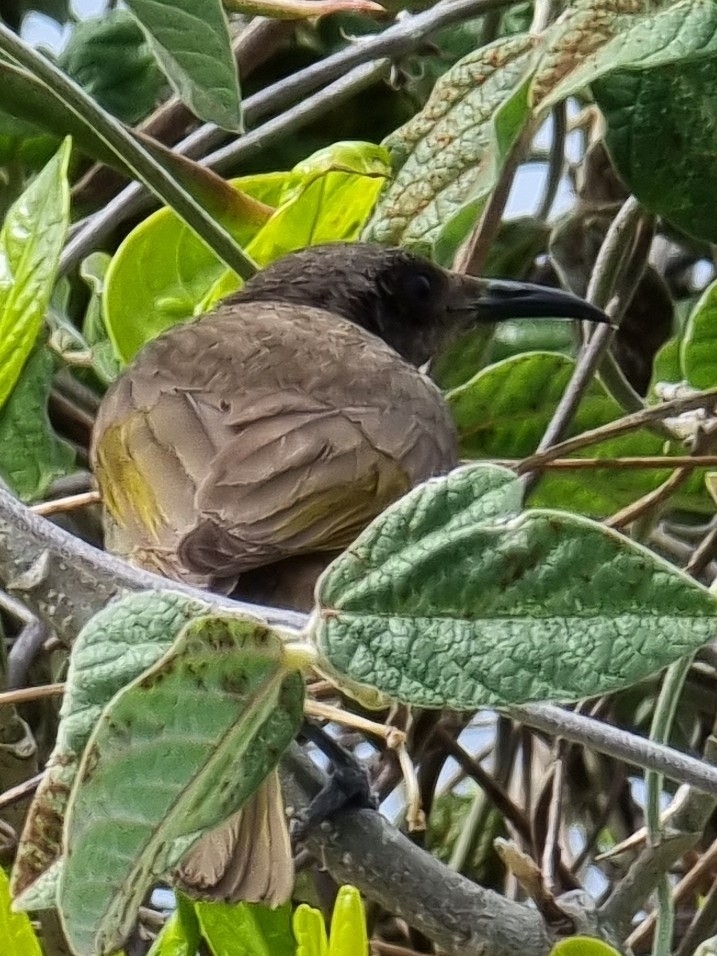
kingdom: Animalia
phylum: Chordata
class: Aves
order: Passeriformes
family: Meliphagidae
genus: Lichmera
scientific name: Lichmera indistincta
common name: Brown honeyeater
